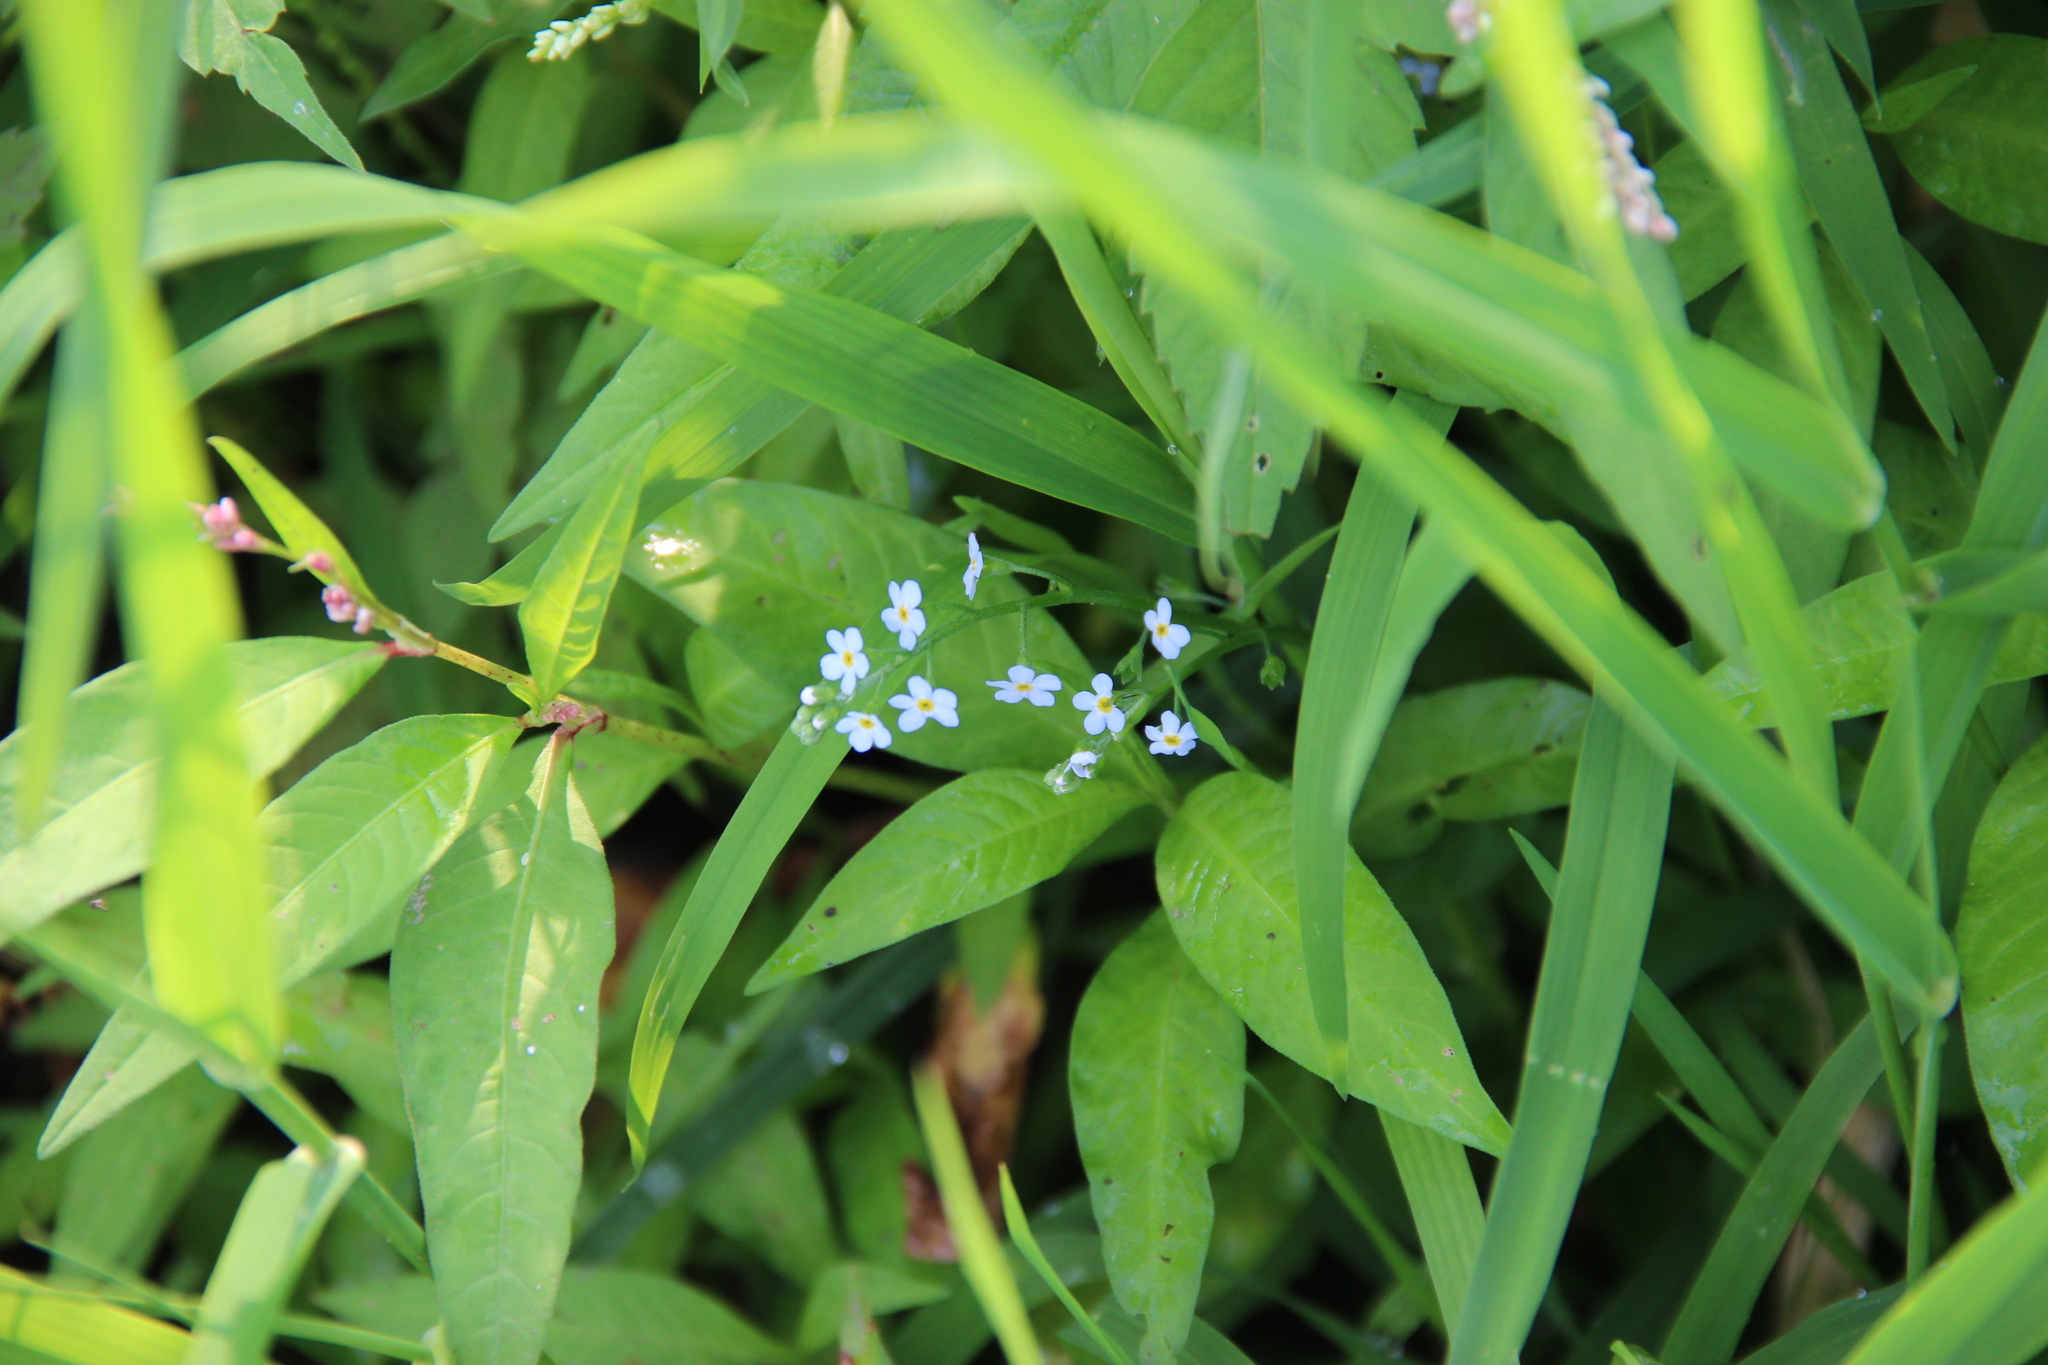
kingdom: Plantae
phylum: Tracheophyta
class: Magnoliopsida
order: Boraginales
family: Boraginaceae
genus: Myosotis
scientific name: Myosotis scorpioides
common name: Water forget-me-not
